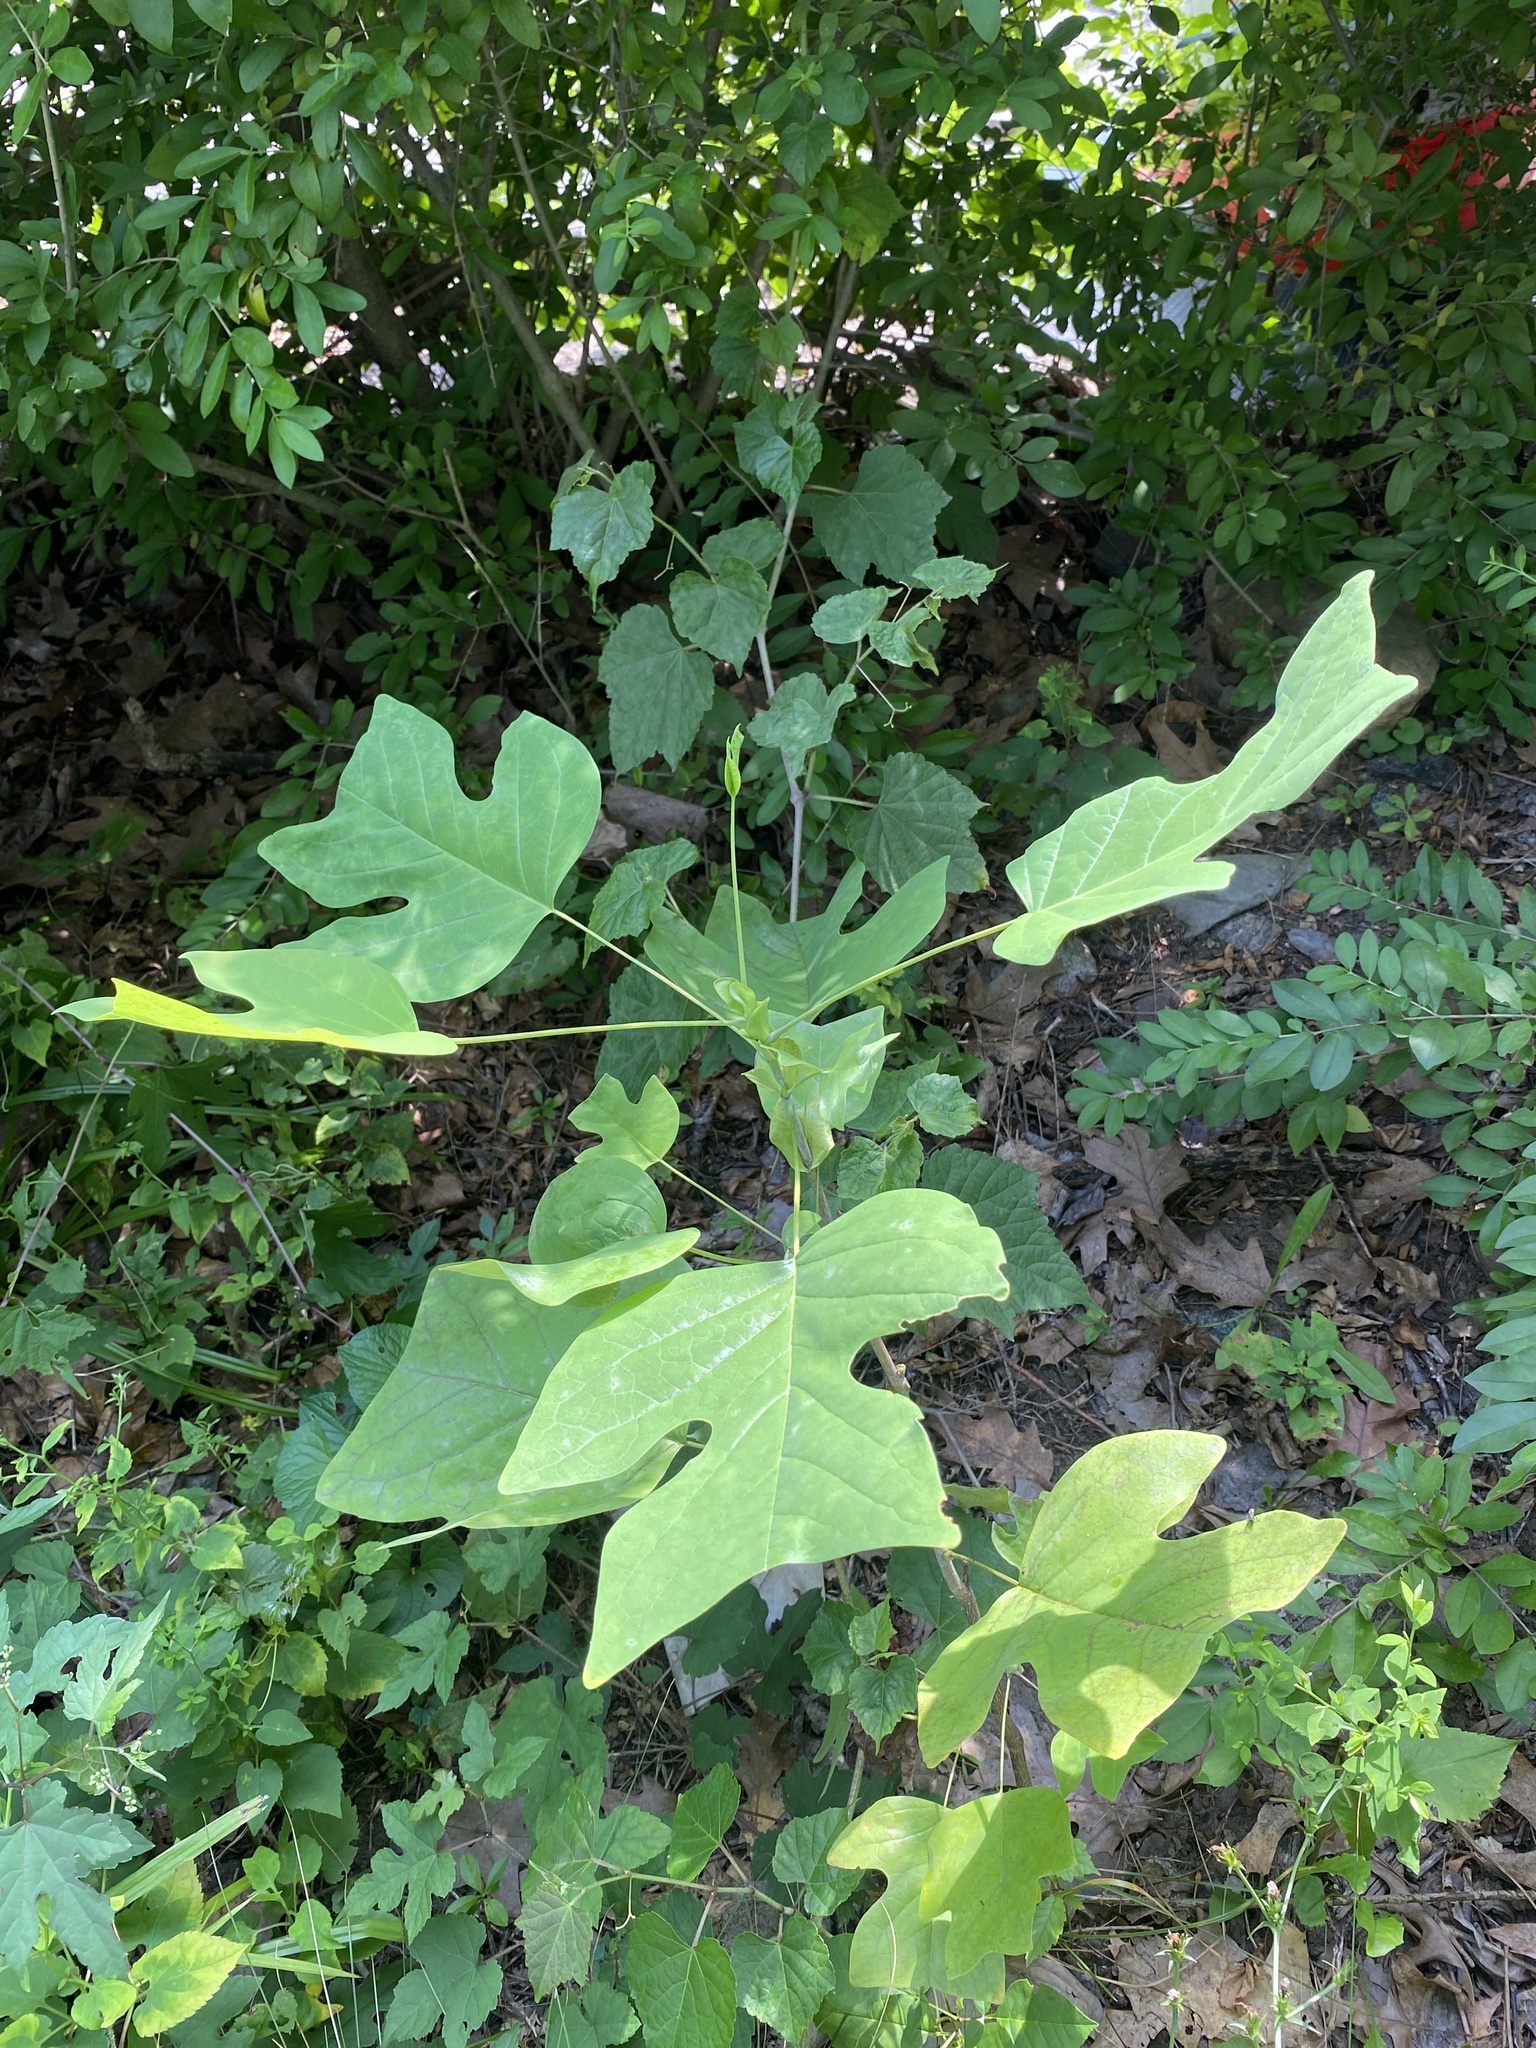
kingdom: Plantae
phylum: Tracheophyta
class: Magnoliopsida
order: Magnoliales
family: Magnoliaceae
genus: Liriodendron
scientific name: Liriodendron tulipifera
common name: Tulip tree
